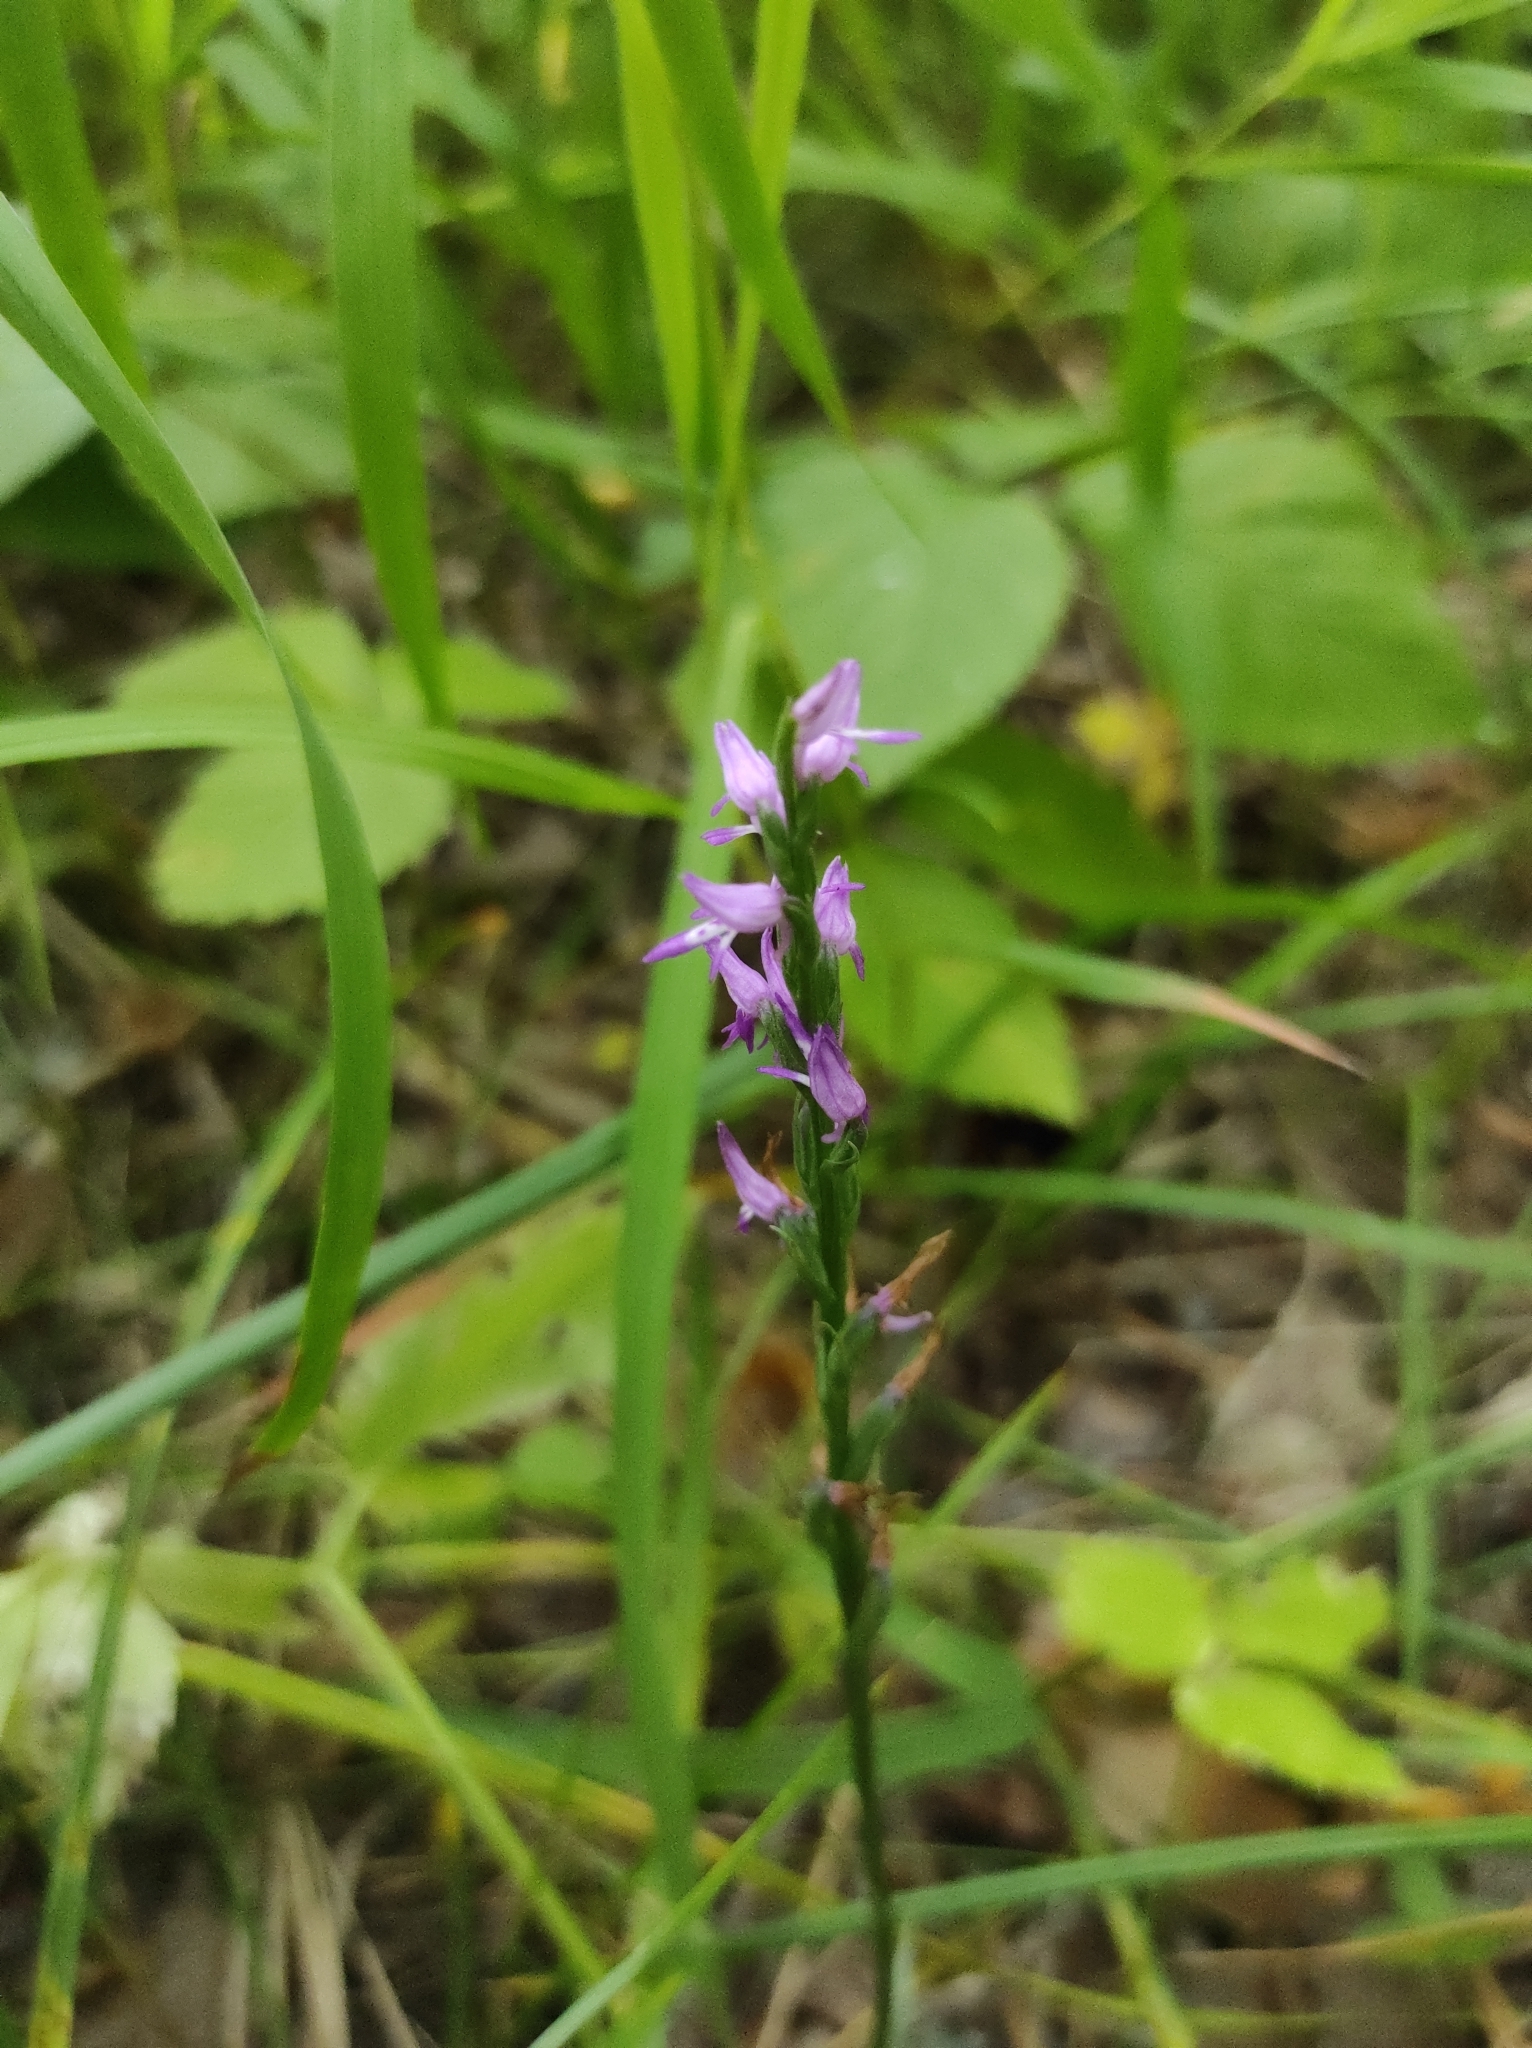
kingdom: Plantae
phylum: Tracheophyta
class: Liliopsida
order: Asparagales
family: Orchidaceae
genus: Hemipilia
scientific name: Hemipilia cucullata
